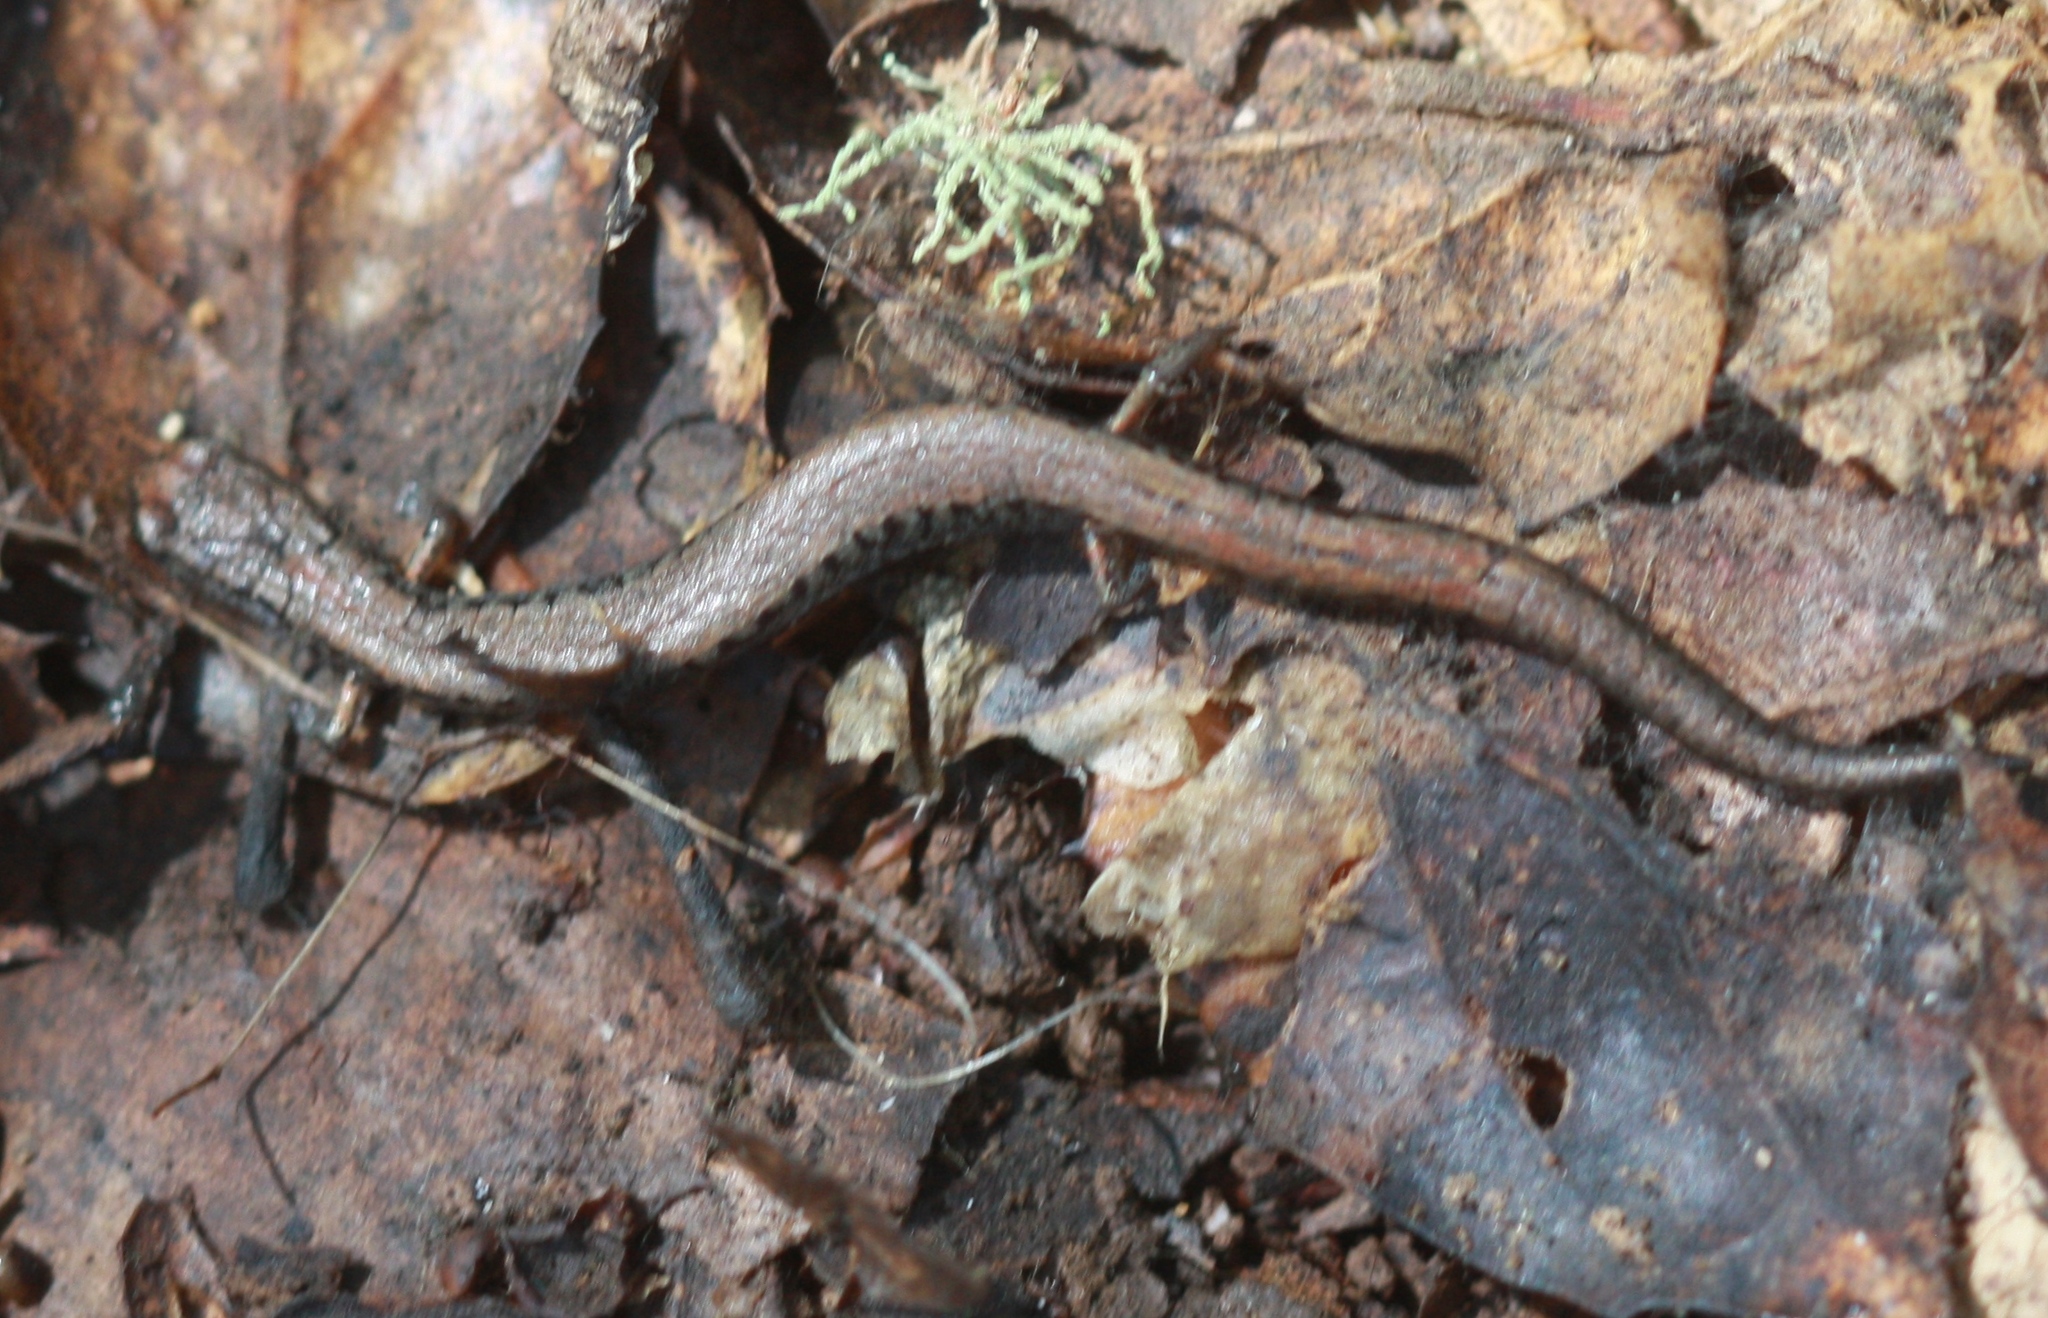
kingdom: Animalia
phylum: Chordata
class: Amphibia
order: Caudata
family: Plethodontidae
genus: Batrachoseps
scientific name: Batrachoseps attenuatus
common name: California slender salamander
